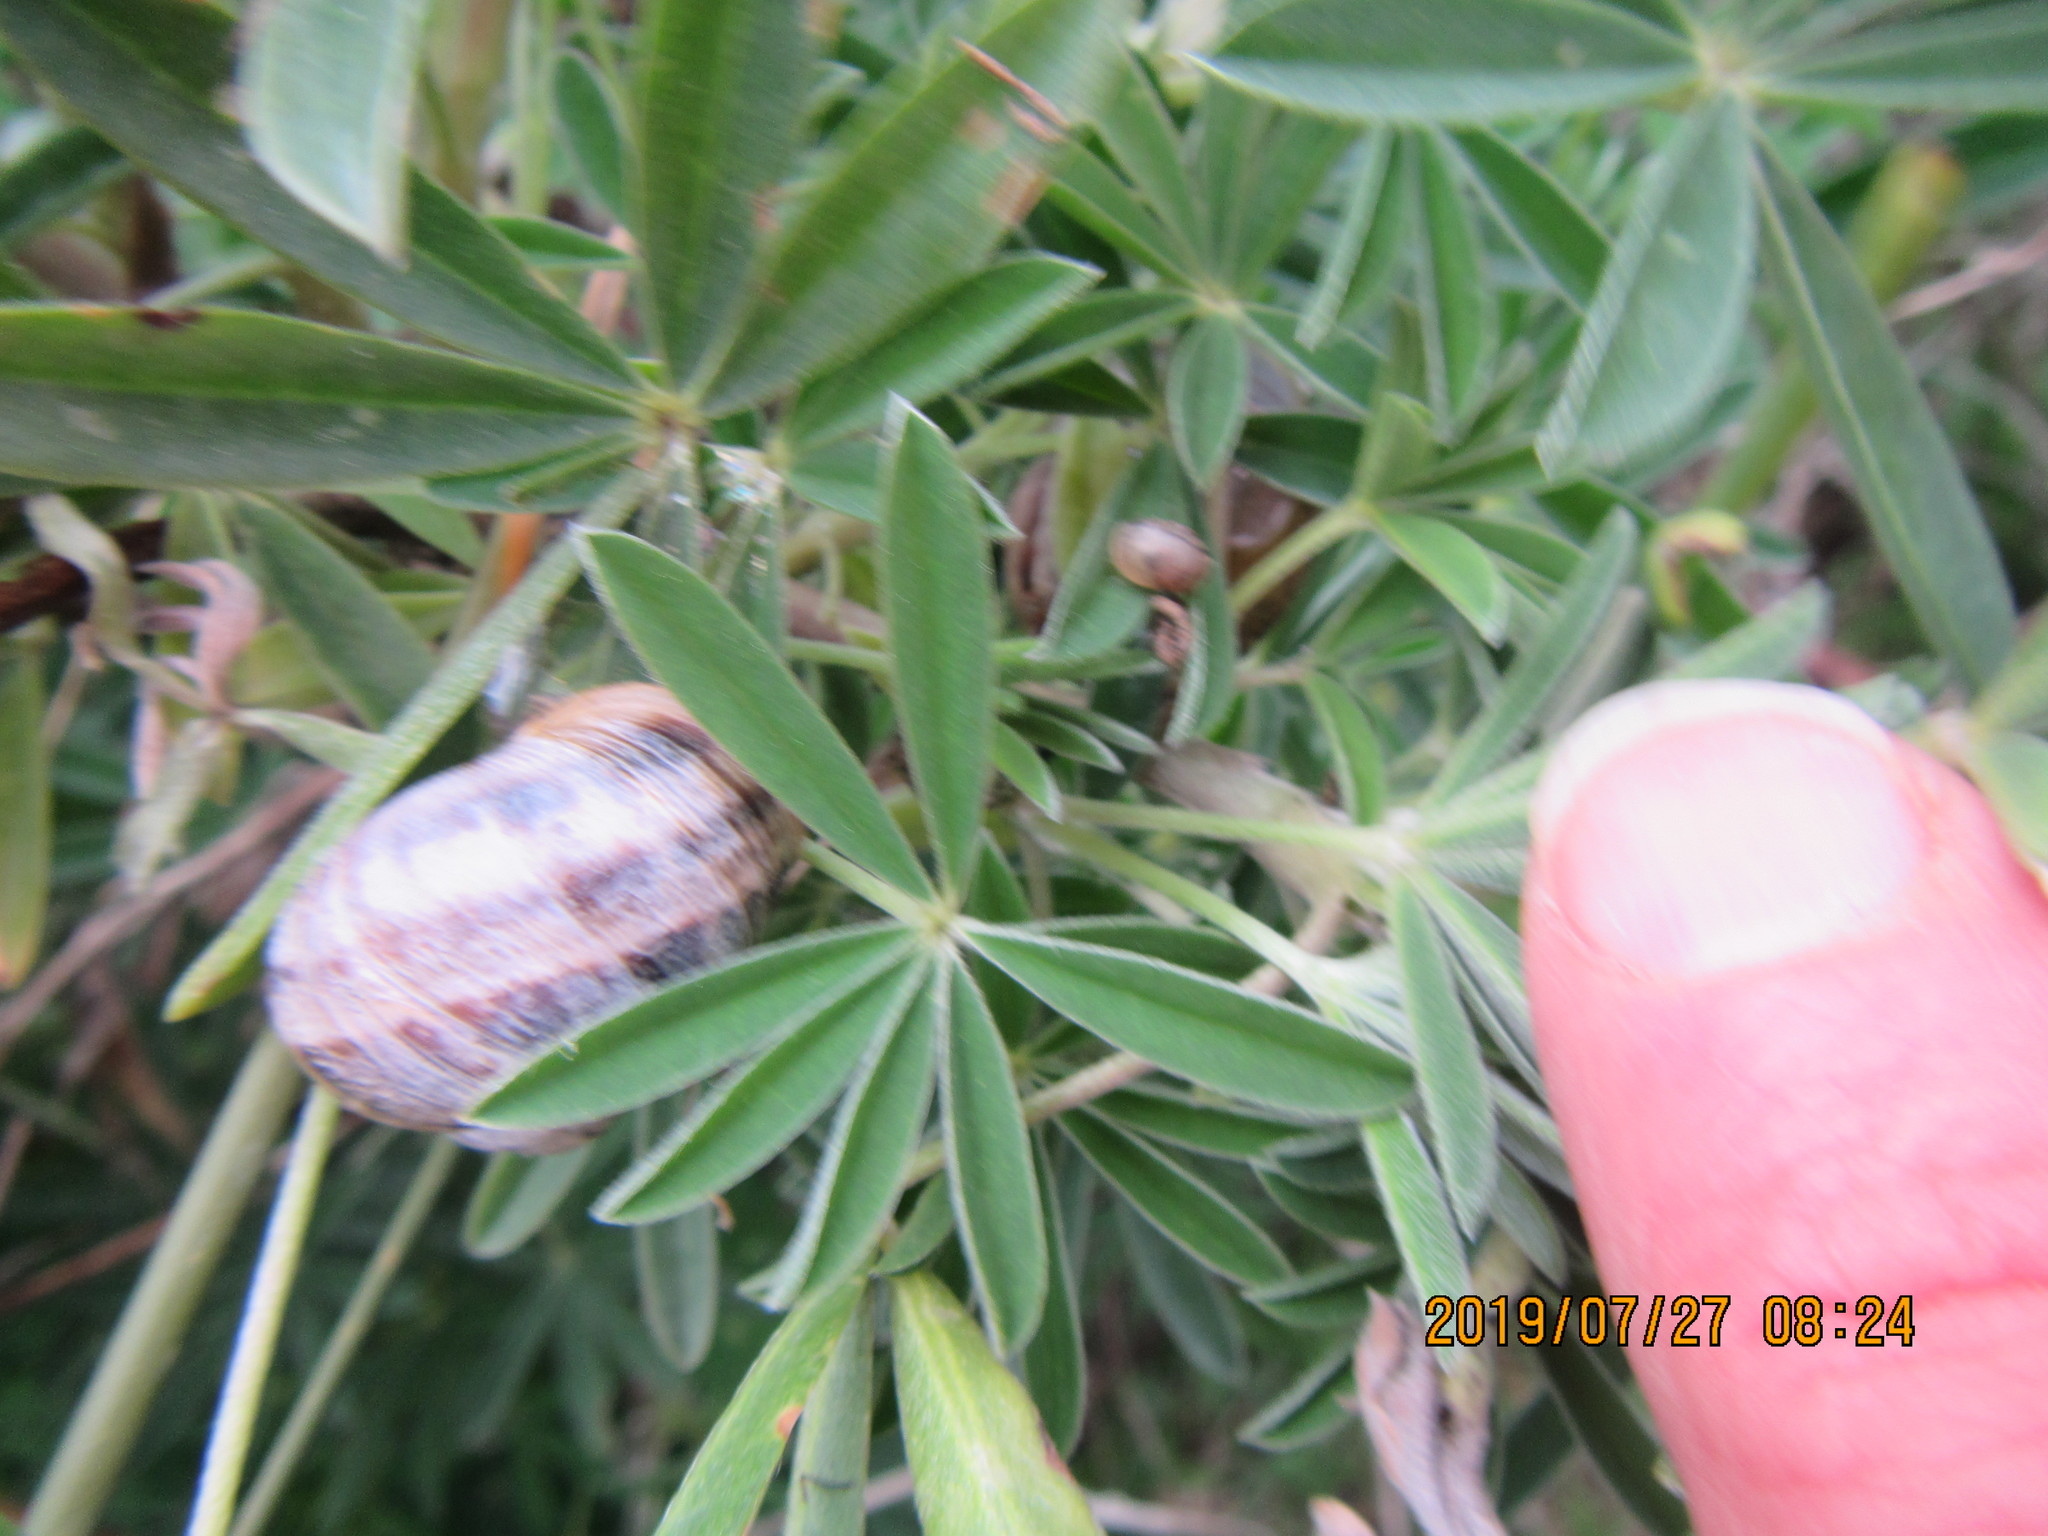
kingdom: Plantae
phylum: Tracheophyta
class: Magnoliopsida
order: Fabales
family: Fabaceae
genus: Lupinus
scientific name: Lupinus arboreus
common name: Yellow bush lupine
